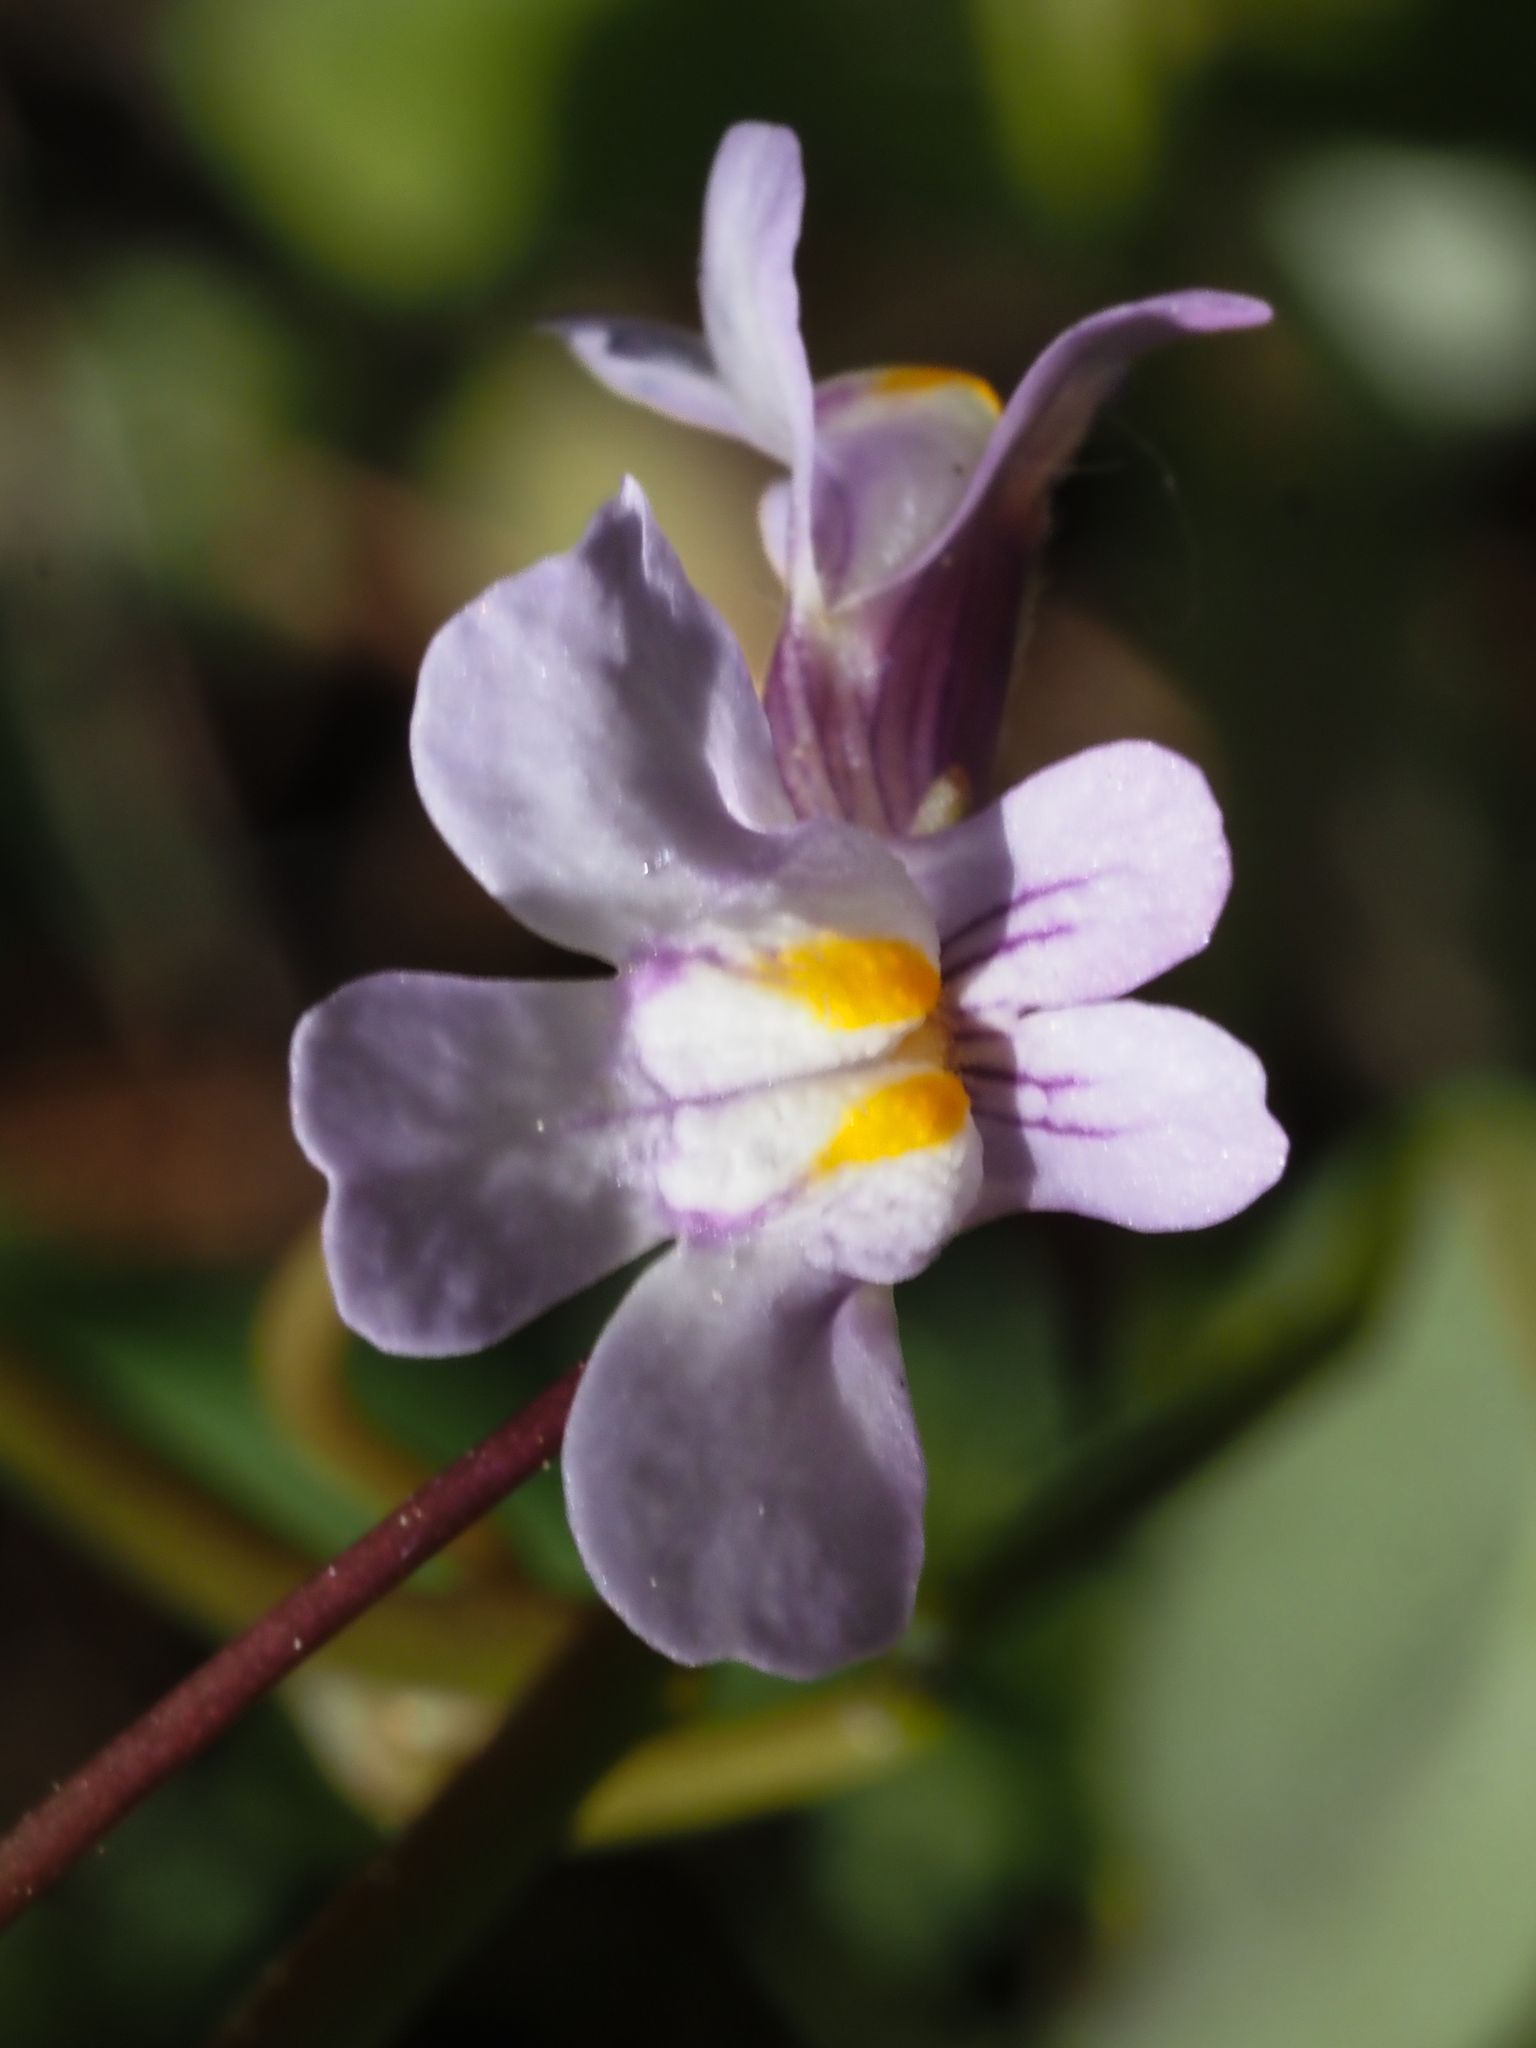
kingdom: Plantae
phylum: Tracheophyta
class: Magnoliopsida
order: Lamiales
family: Plantaginaceae
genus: Cymbalaria
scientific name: Cymbalaria muralis
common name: Ivy-leaved toadflax
